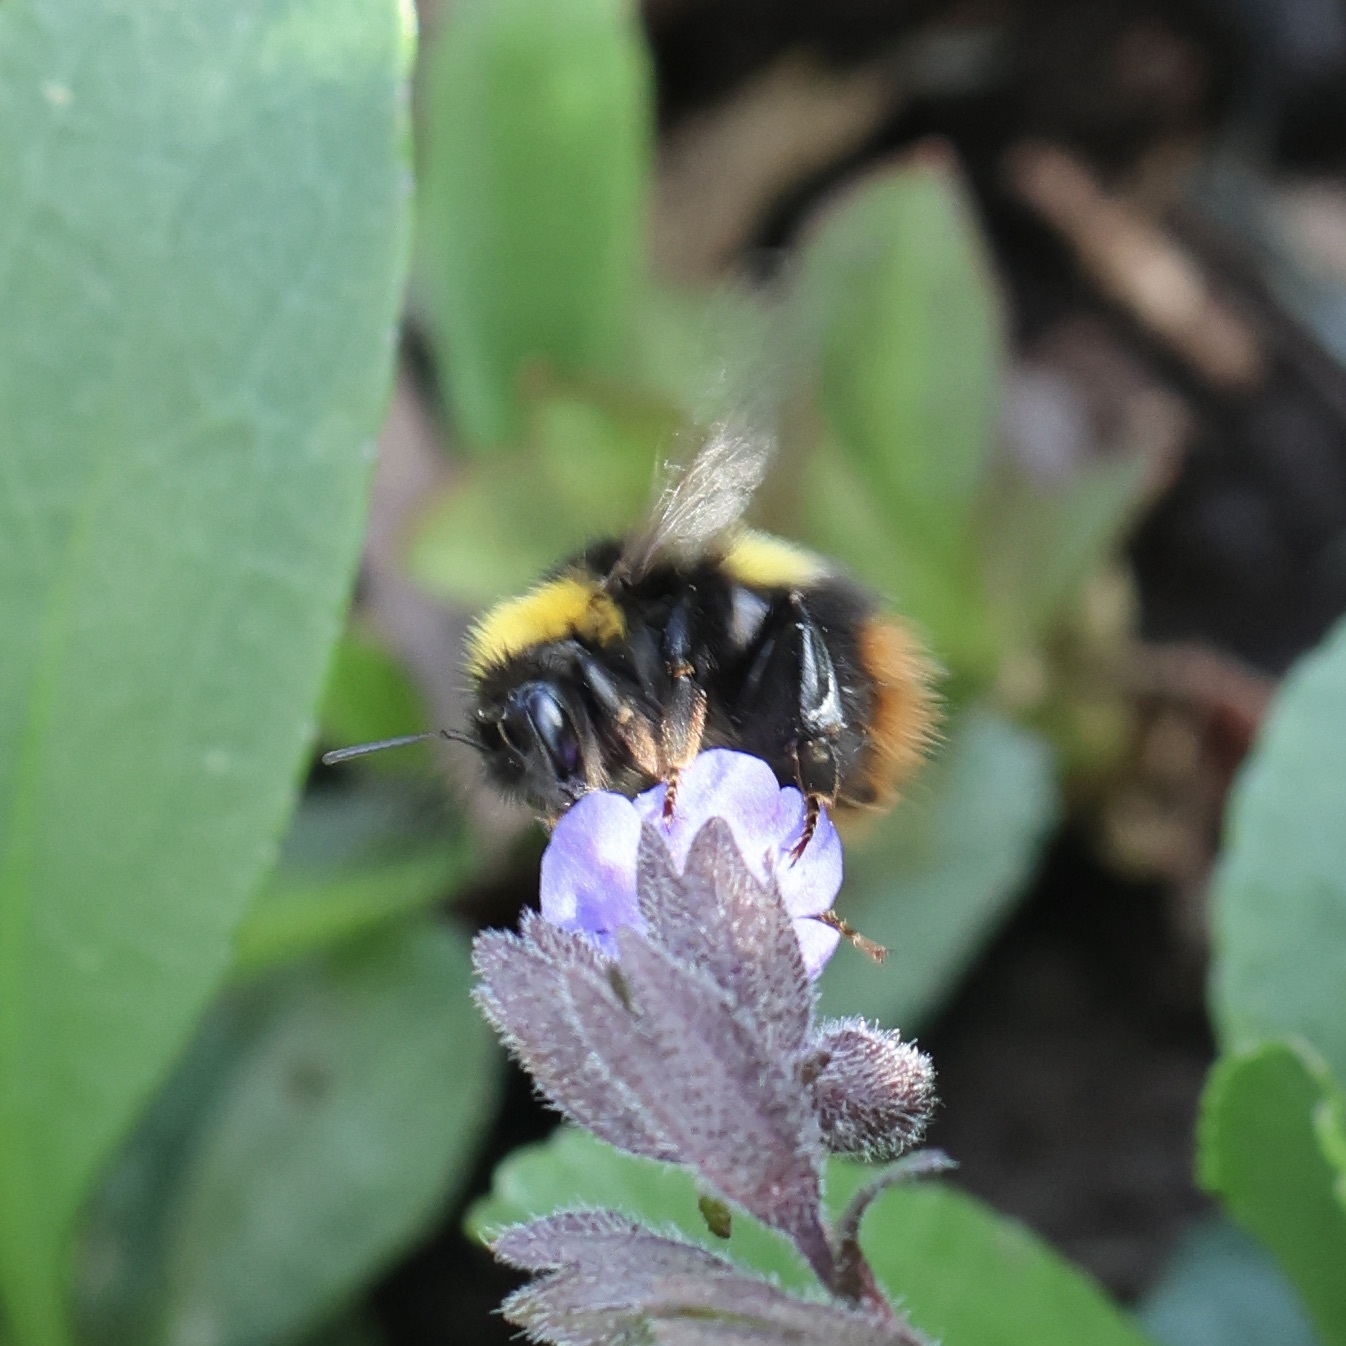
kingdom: Animalia
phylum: Arthropoda
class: Insecta
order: Hymenoptera
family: Apidae
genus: Bombus
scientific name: Bombus pratorum
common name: Early humble-bee
